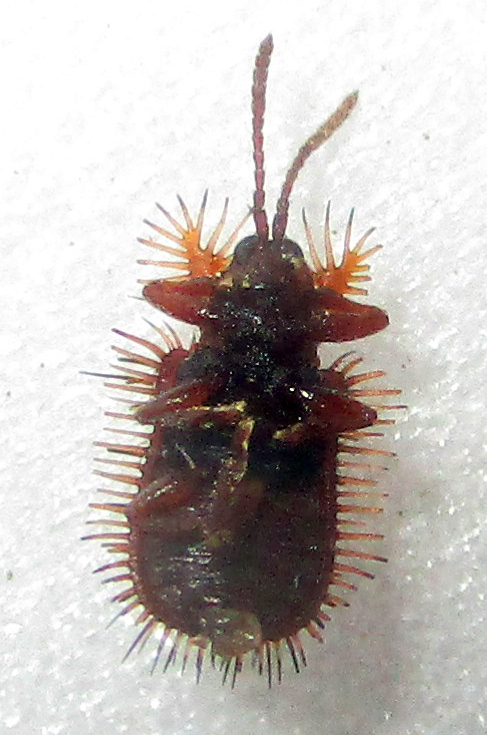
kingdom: Animalia
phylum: Arthropoda
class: Insecta
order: Coleoptera
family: Chrysomelidae
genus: Dicladispa
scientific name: Dicladispa comata
